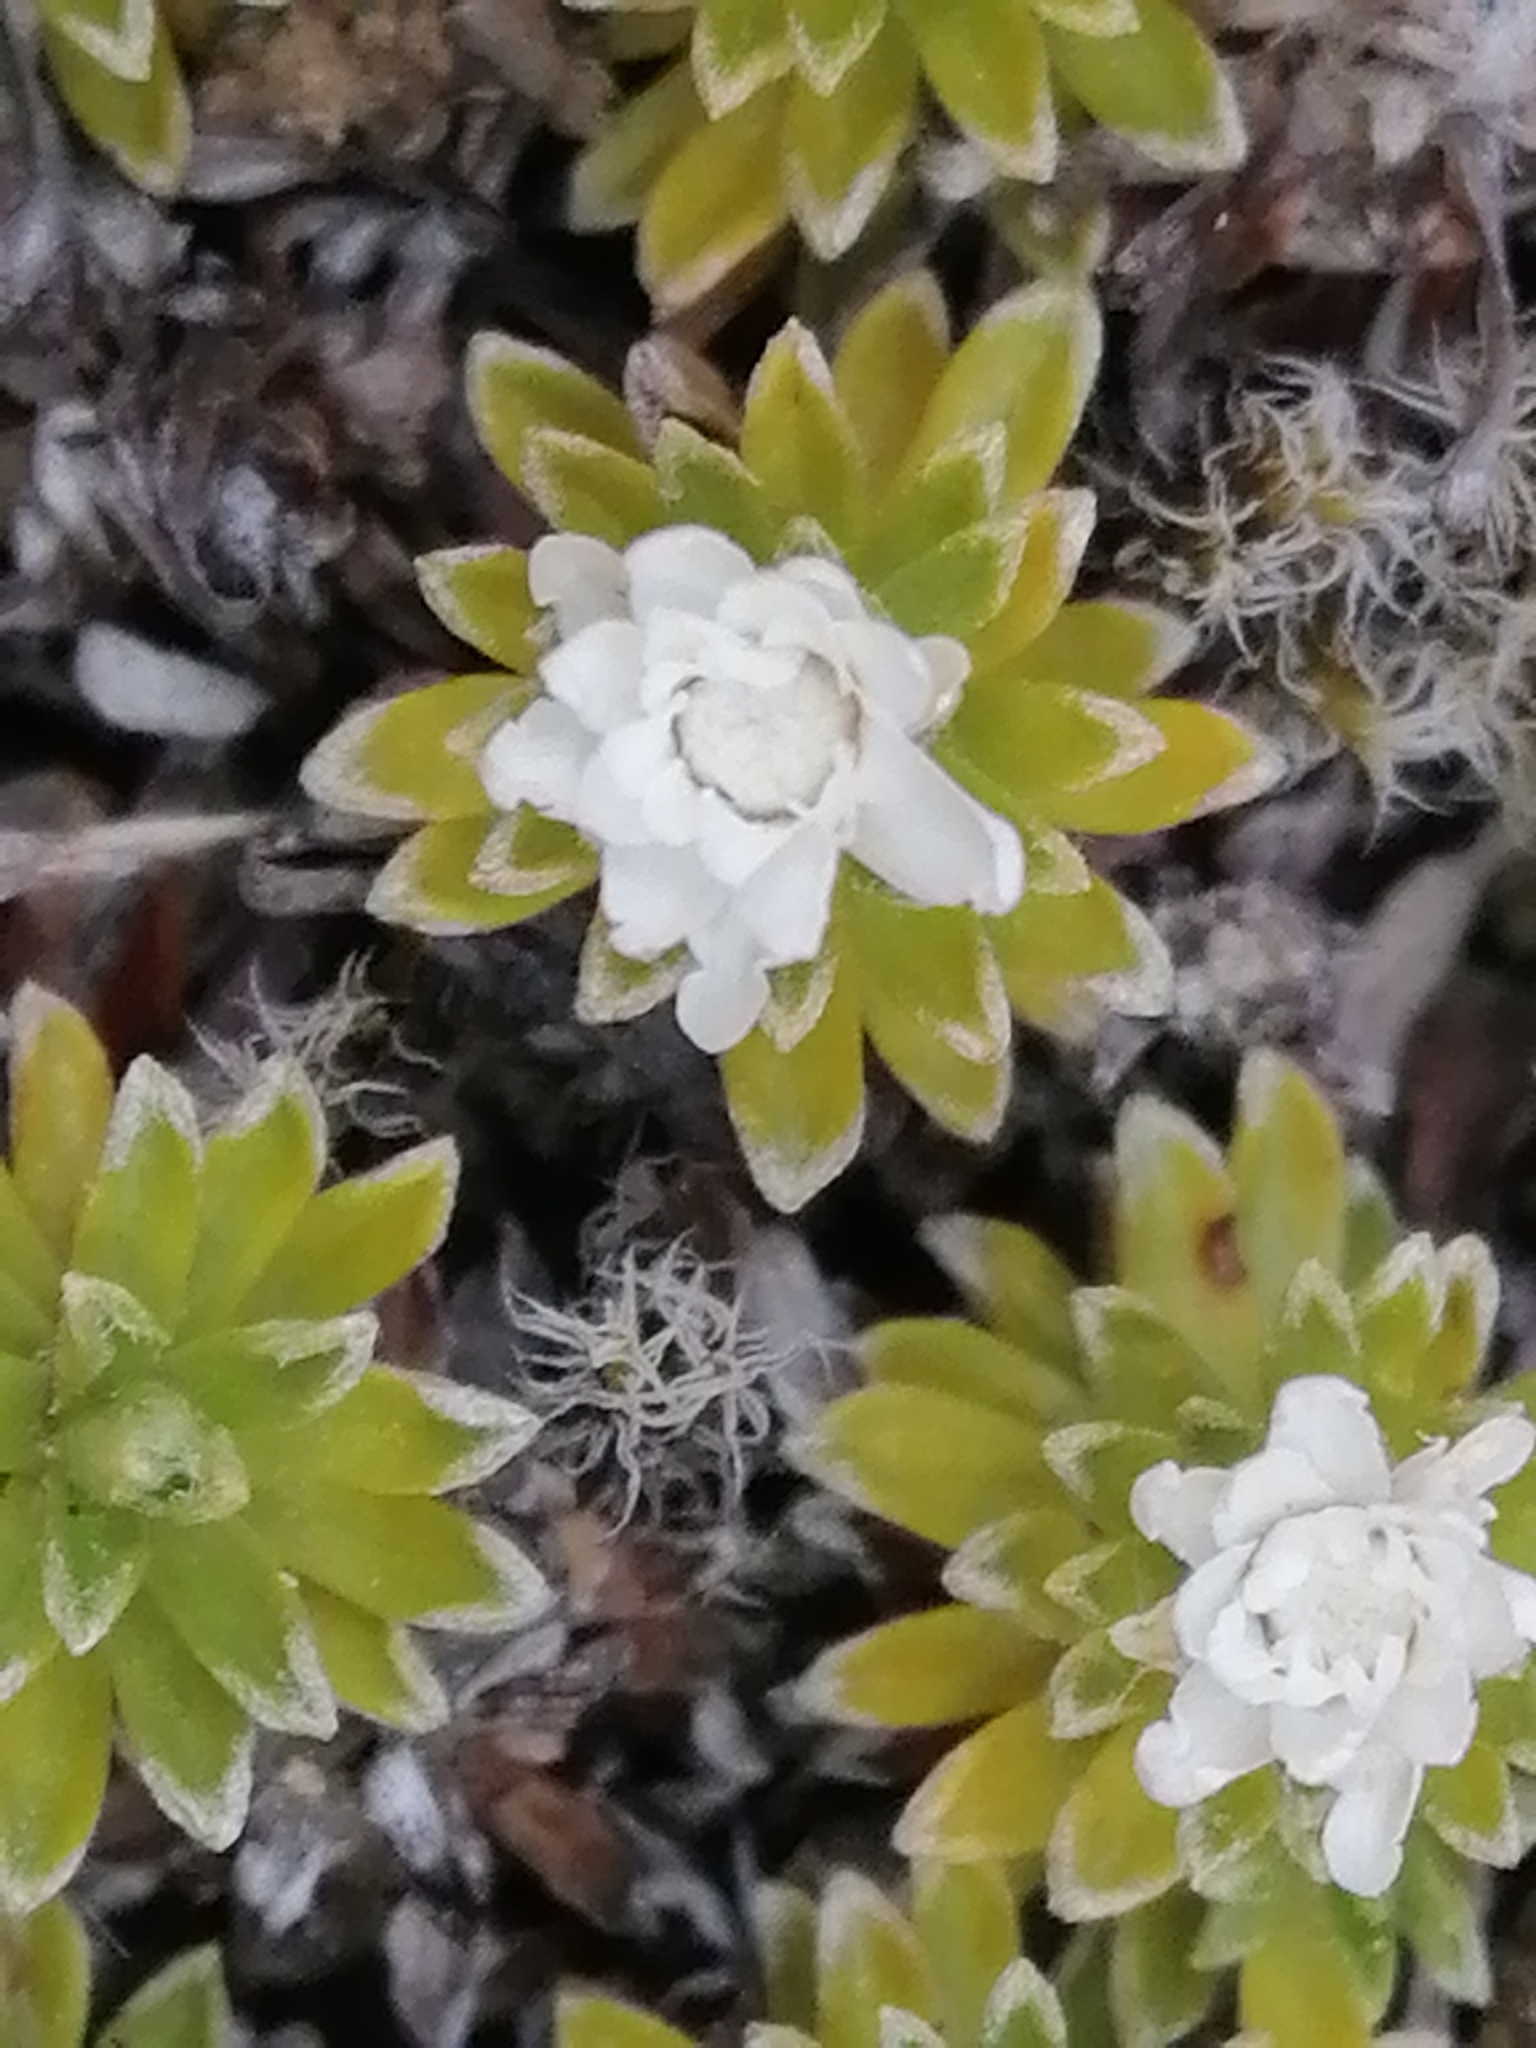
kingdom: Plantae
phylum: Tracheophyta
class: Magnoliopsida
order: Asterales
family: Asteraceae
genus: Raoulia
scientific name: Raoulia subsericea
